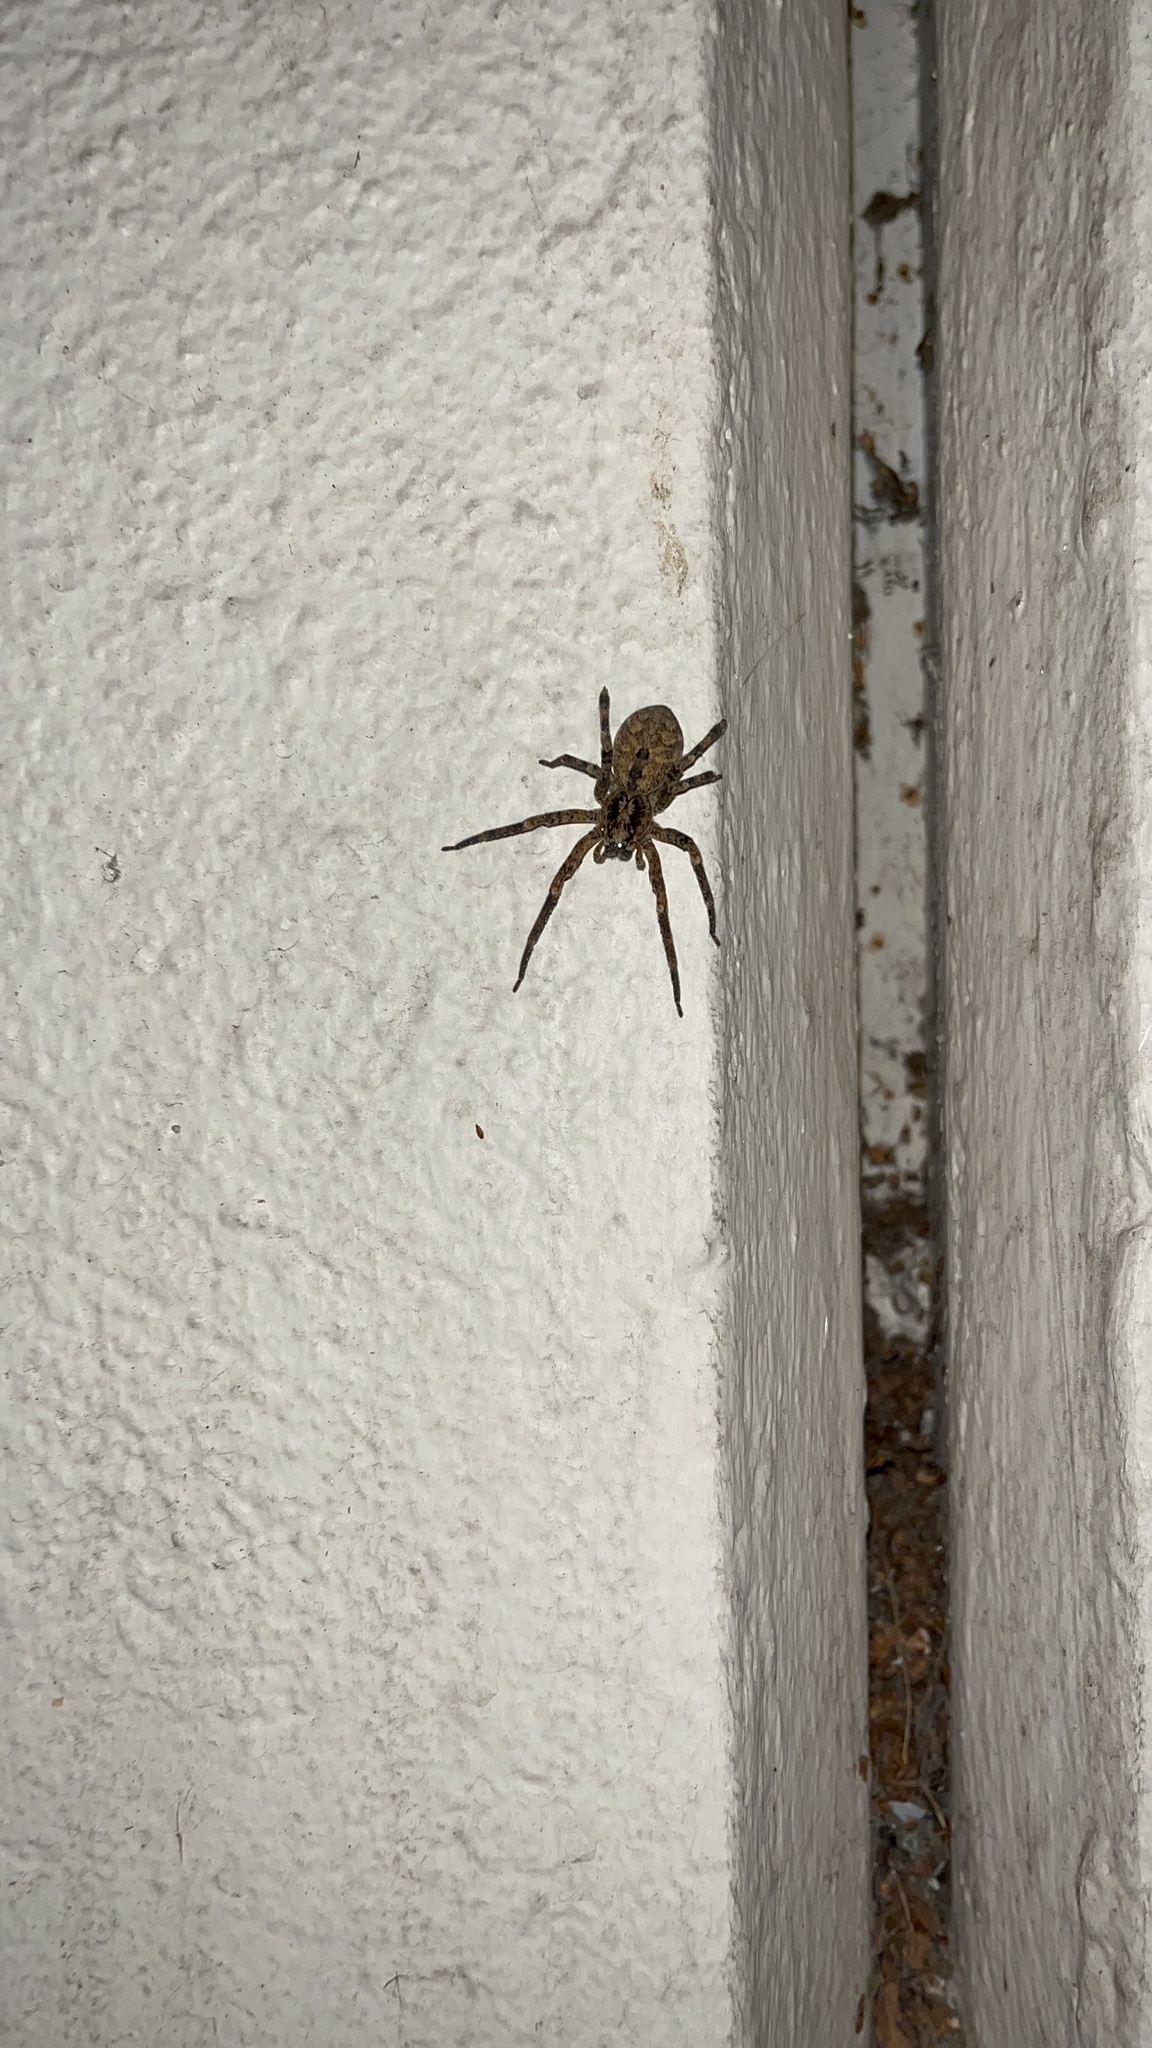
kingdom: Animalia
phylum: Arthropoda
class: Arachnida
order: Araneae
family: Zoropsidae
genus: Zoropsis
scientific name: Zoropsis spinimana
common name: Zoropsid spider
